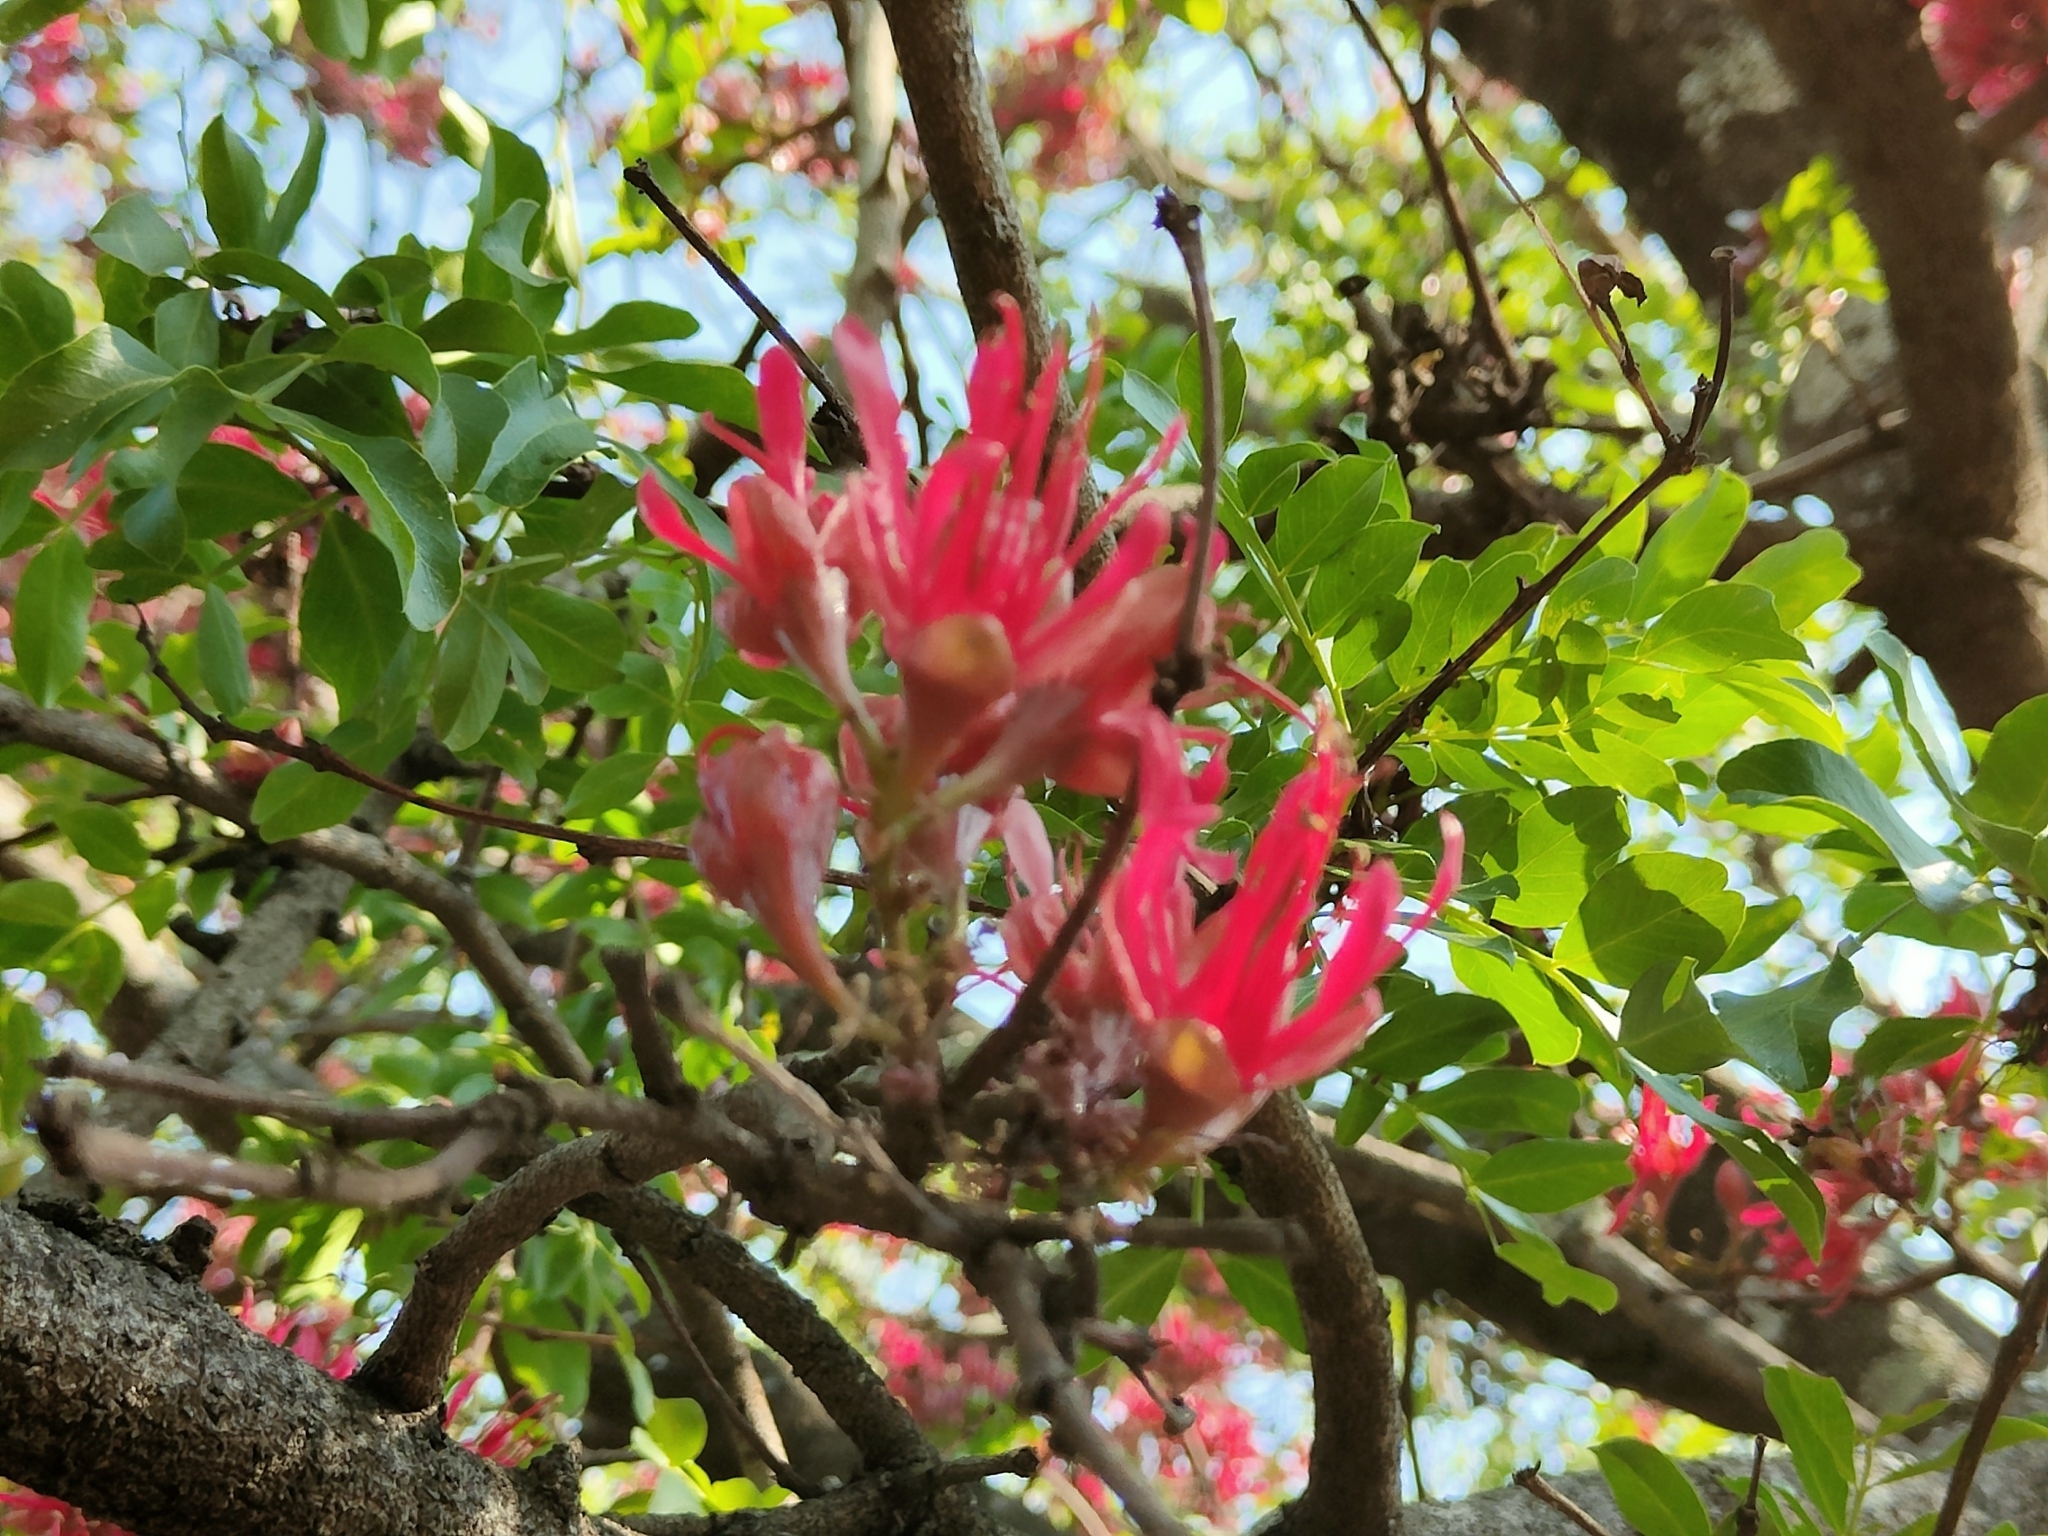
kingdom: Plantae
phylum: Tracheophyta
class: Magnoliopsida
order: Fabales
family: Fabaceae
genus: Schotia
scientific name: Schotia brachypetala
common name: Weeping boer-bean
